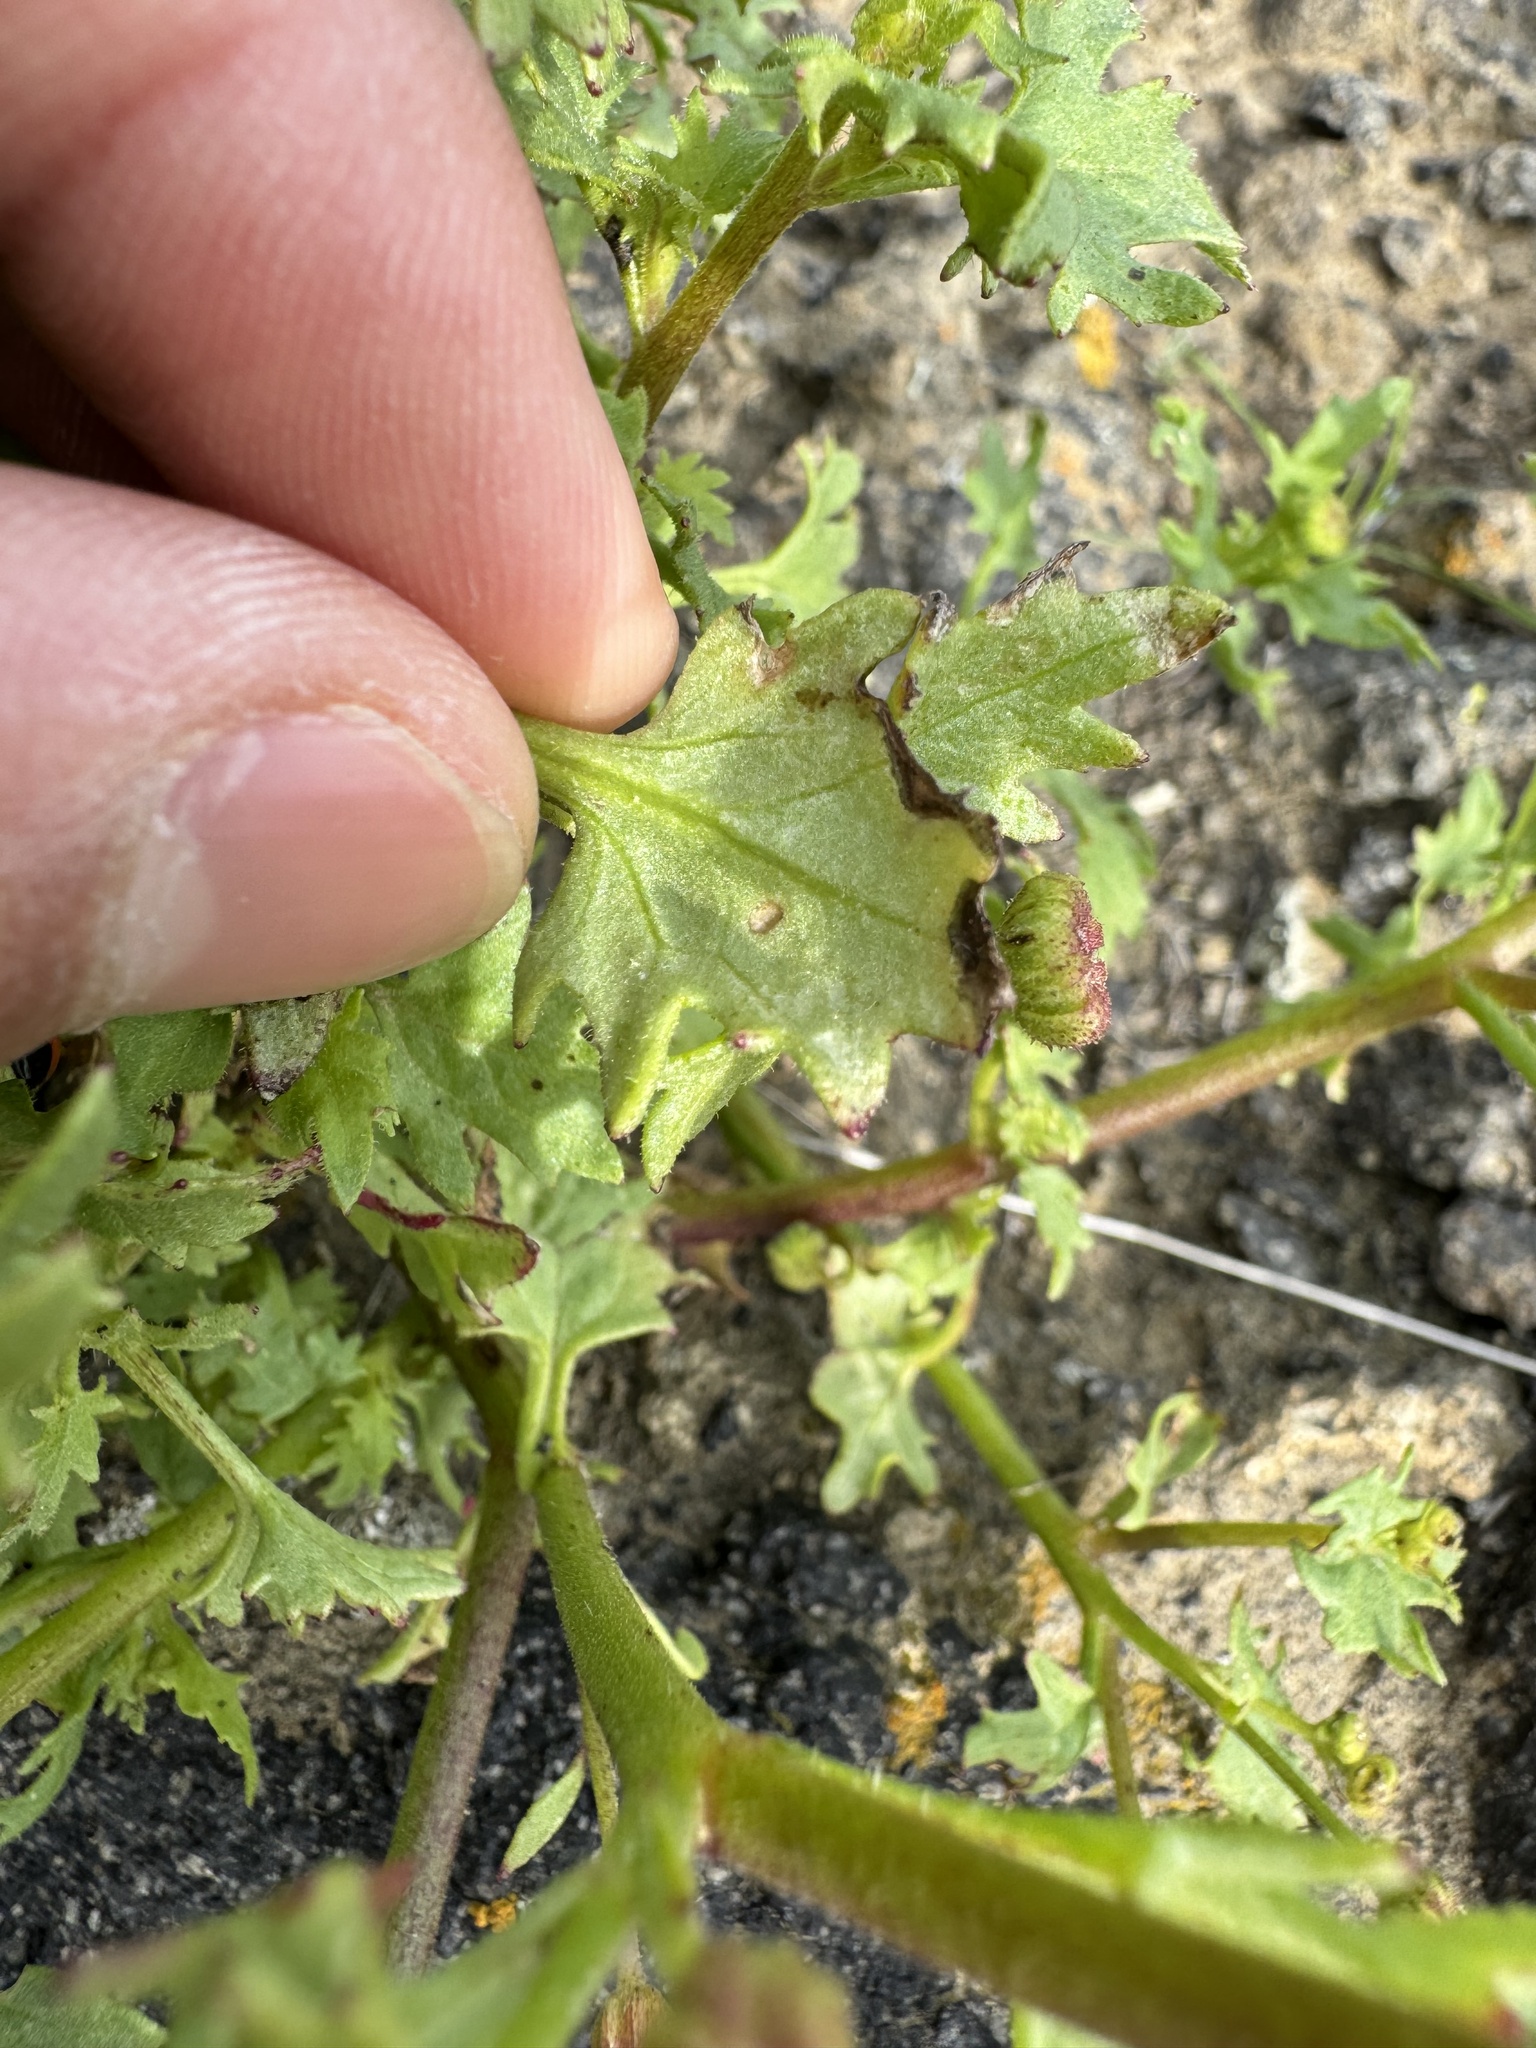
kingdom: Plantae
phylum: Tracheophyta
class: Magnoliopsida
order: Asterales
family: Asteraceae
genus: Laphamia
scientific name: Laphamia emoryi
